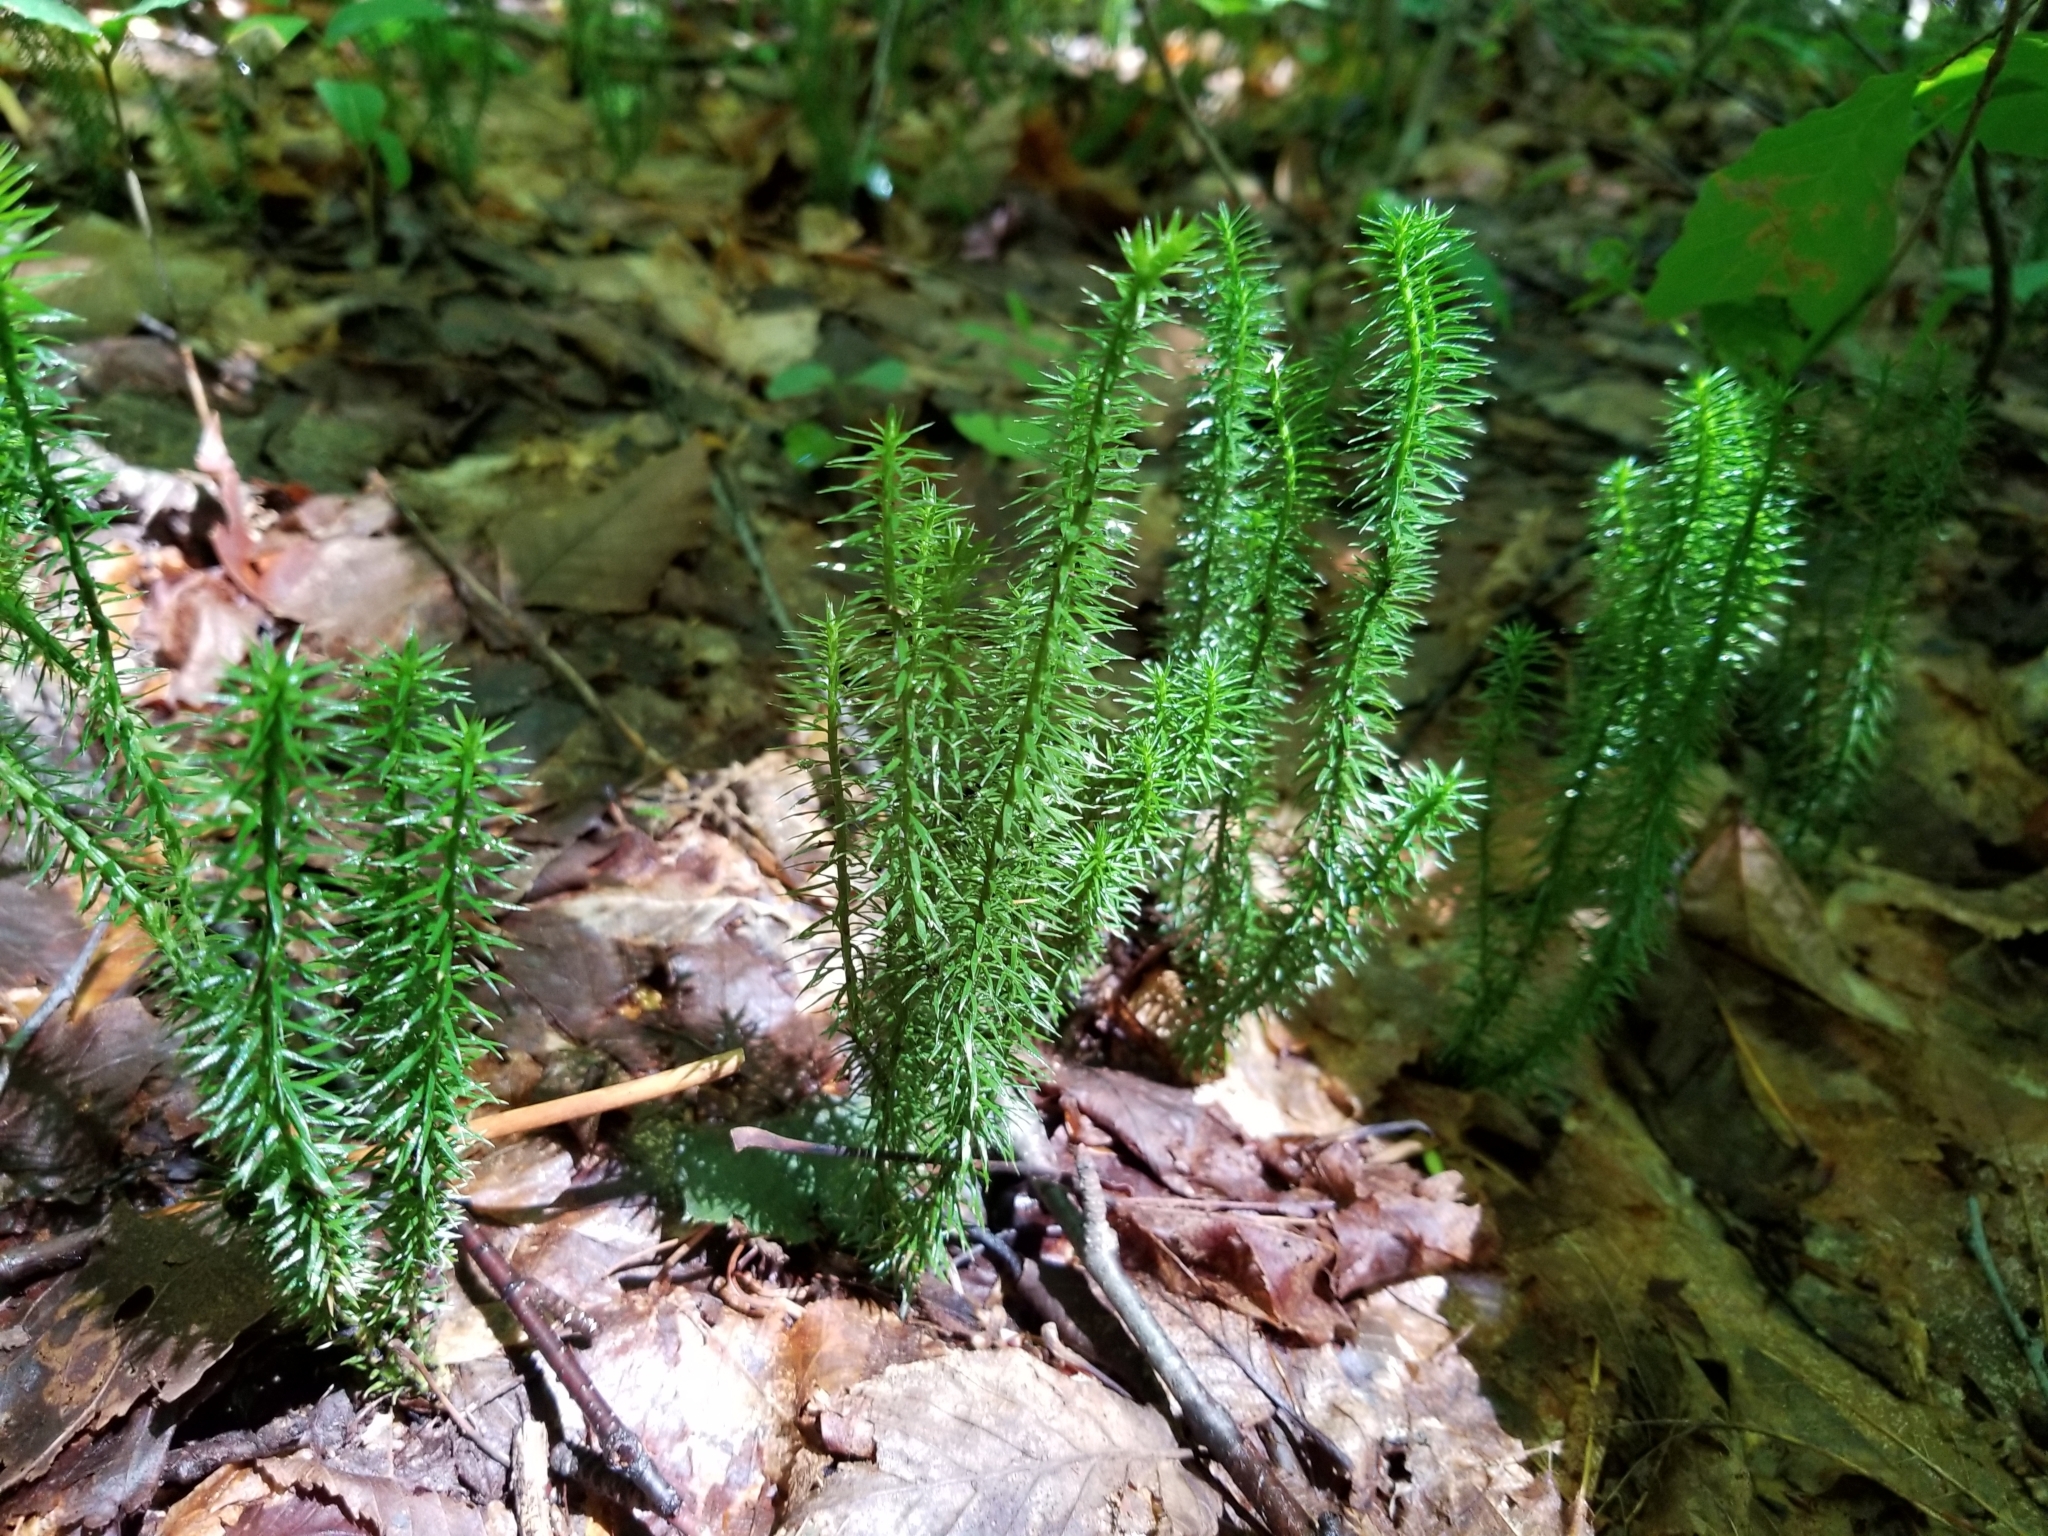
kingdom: Plantae
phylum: Tracheophyta
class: Lycopodiopsida
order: Lycopodiales
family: Lycopodiaceae
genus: Spinulum
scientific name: Spinulum annotinum
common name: Interrupted club-moss
